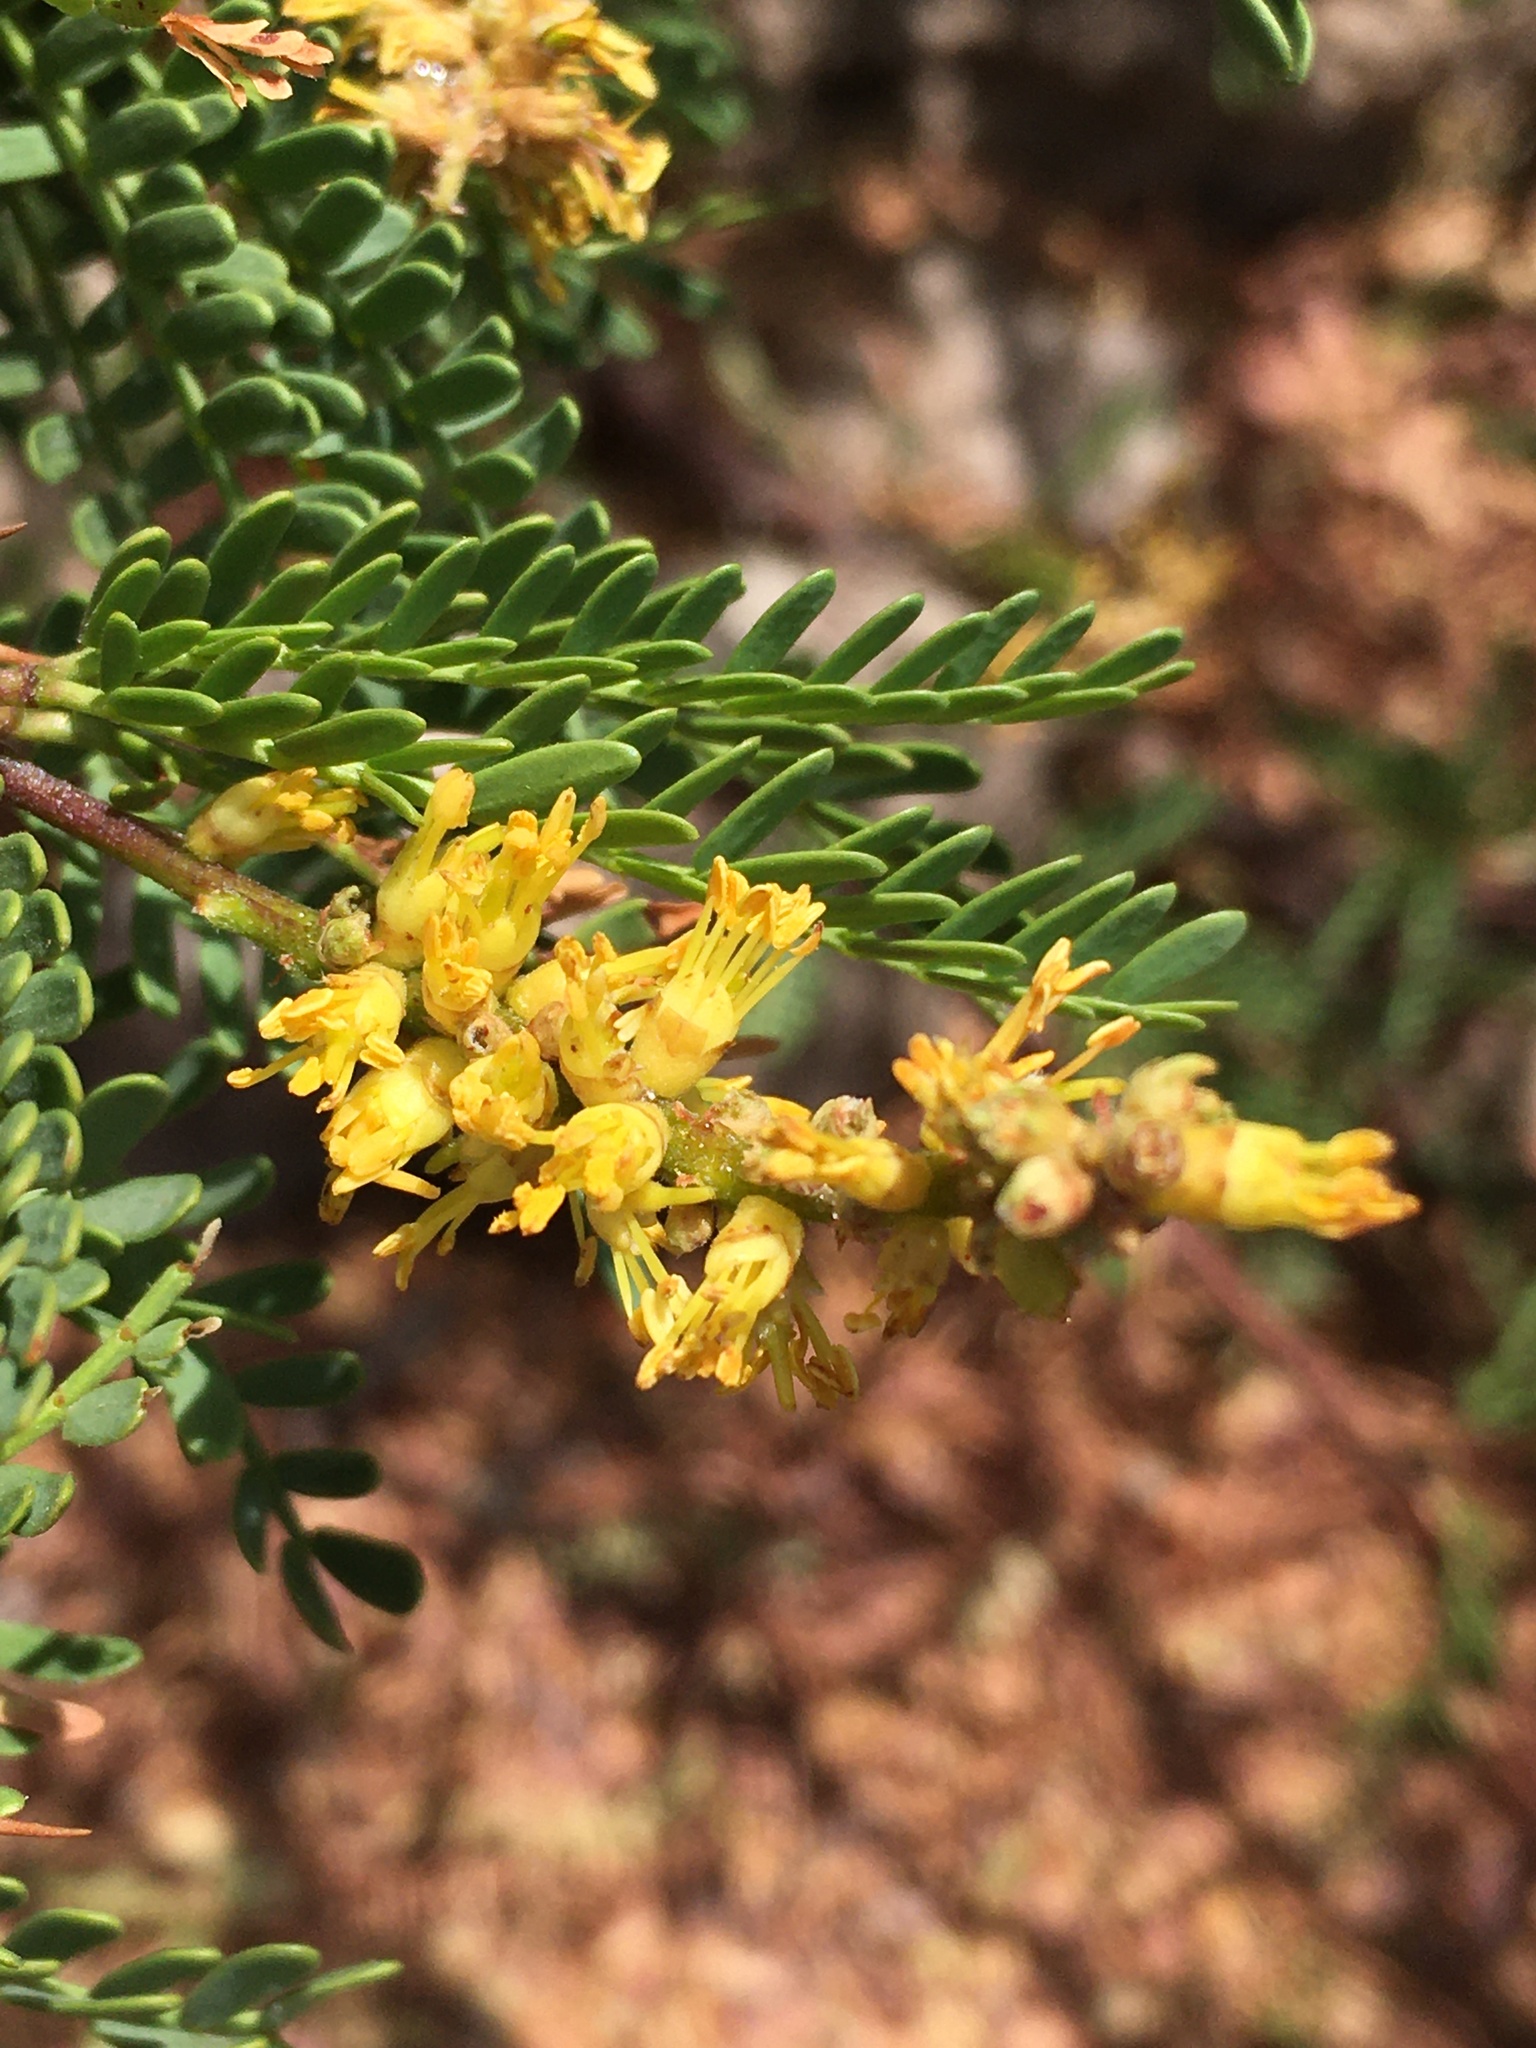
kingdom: Plantae
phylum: Tracheophyta
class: Magnoliopsida
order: Fabales
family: Fabaceae
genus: Prosopis
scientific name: Prosopis tamarugo
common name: Tamarugo
